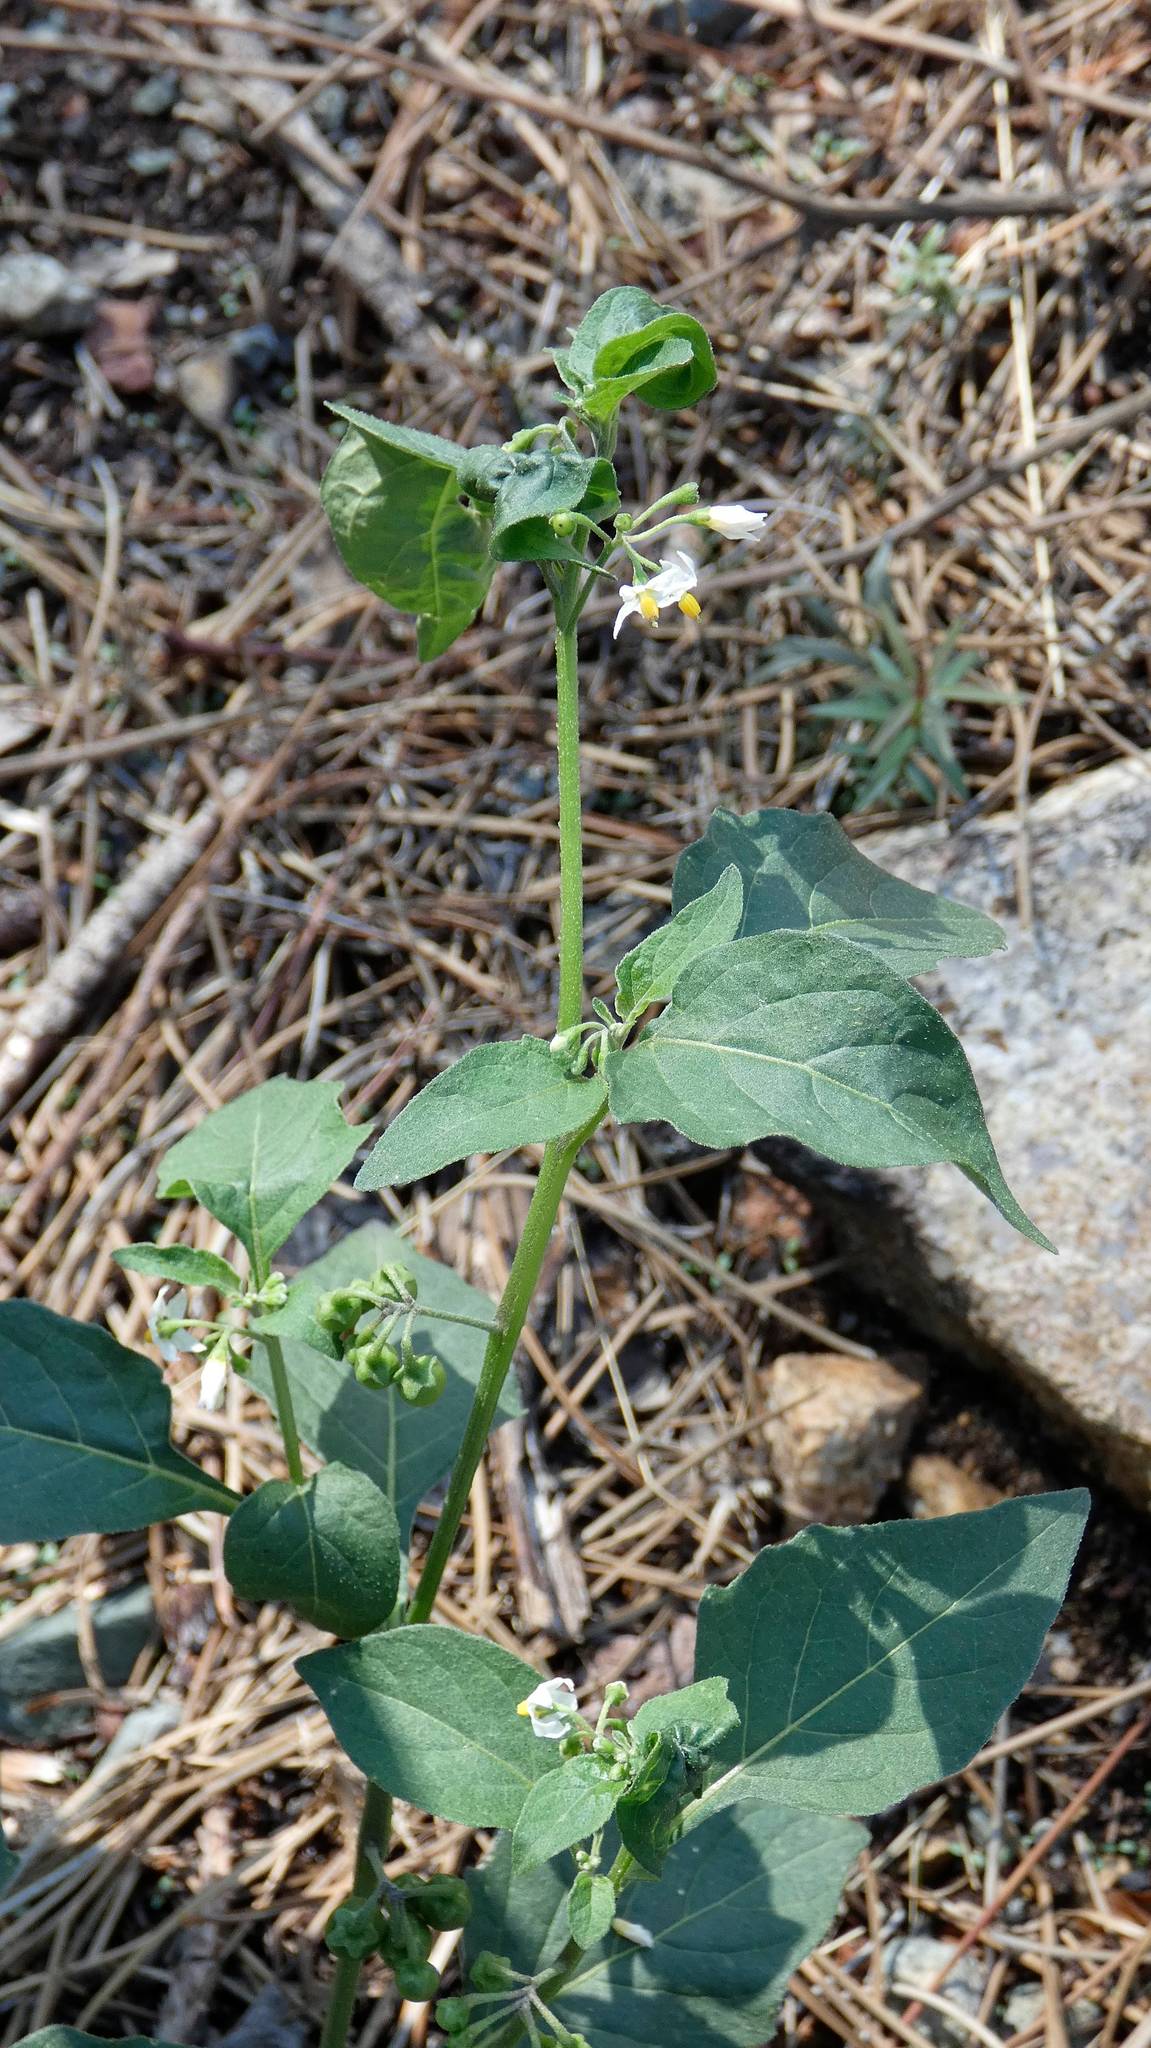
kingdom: Plantae
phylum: Tracheophyta
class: Magnoliopsida
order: Solanales
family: Solanaceae
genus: Solanum
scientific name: Solanum nigrum
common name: Black nightshade
